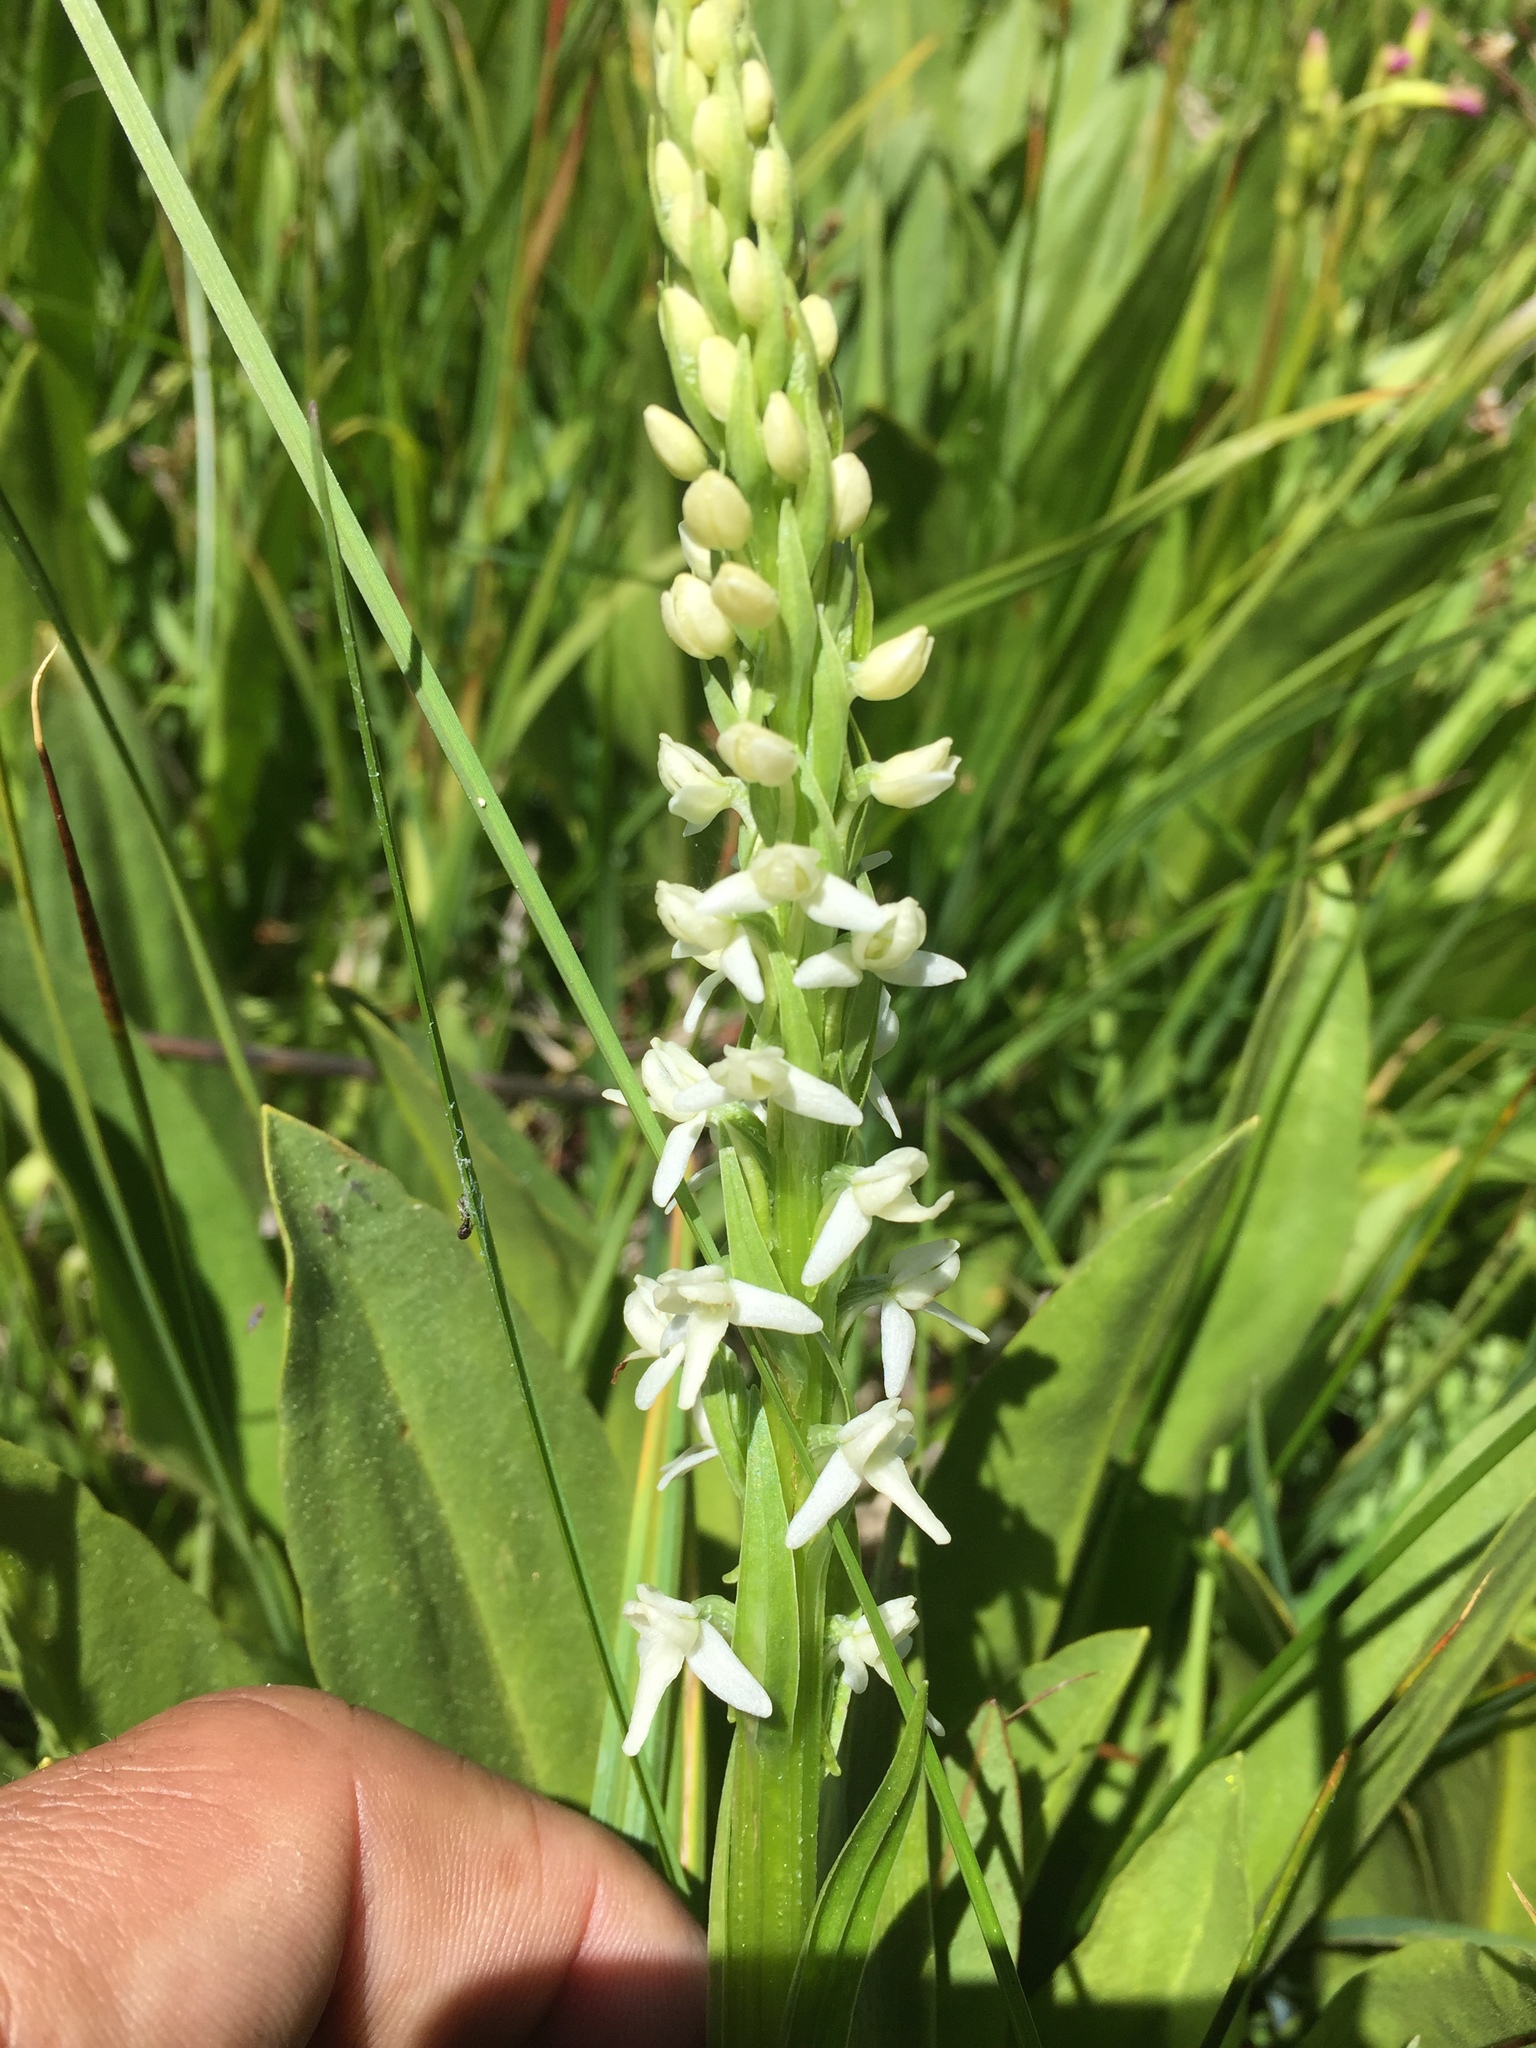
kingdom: Plantae
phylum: Tracheophyta
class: Liliopsida
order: Asparagales
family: Orchidaceae
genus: Platanthera
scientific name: Platanthera dilatata
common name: Bog candles
